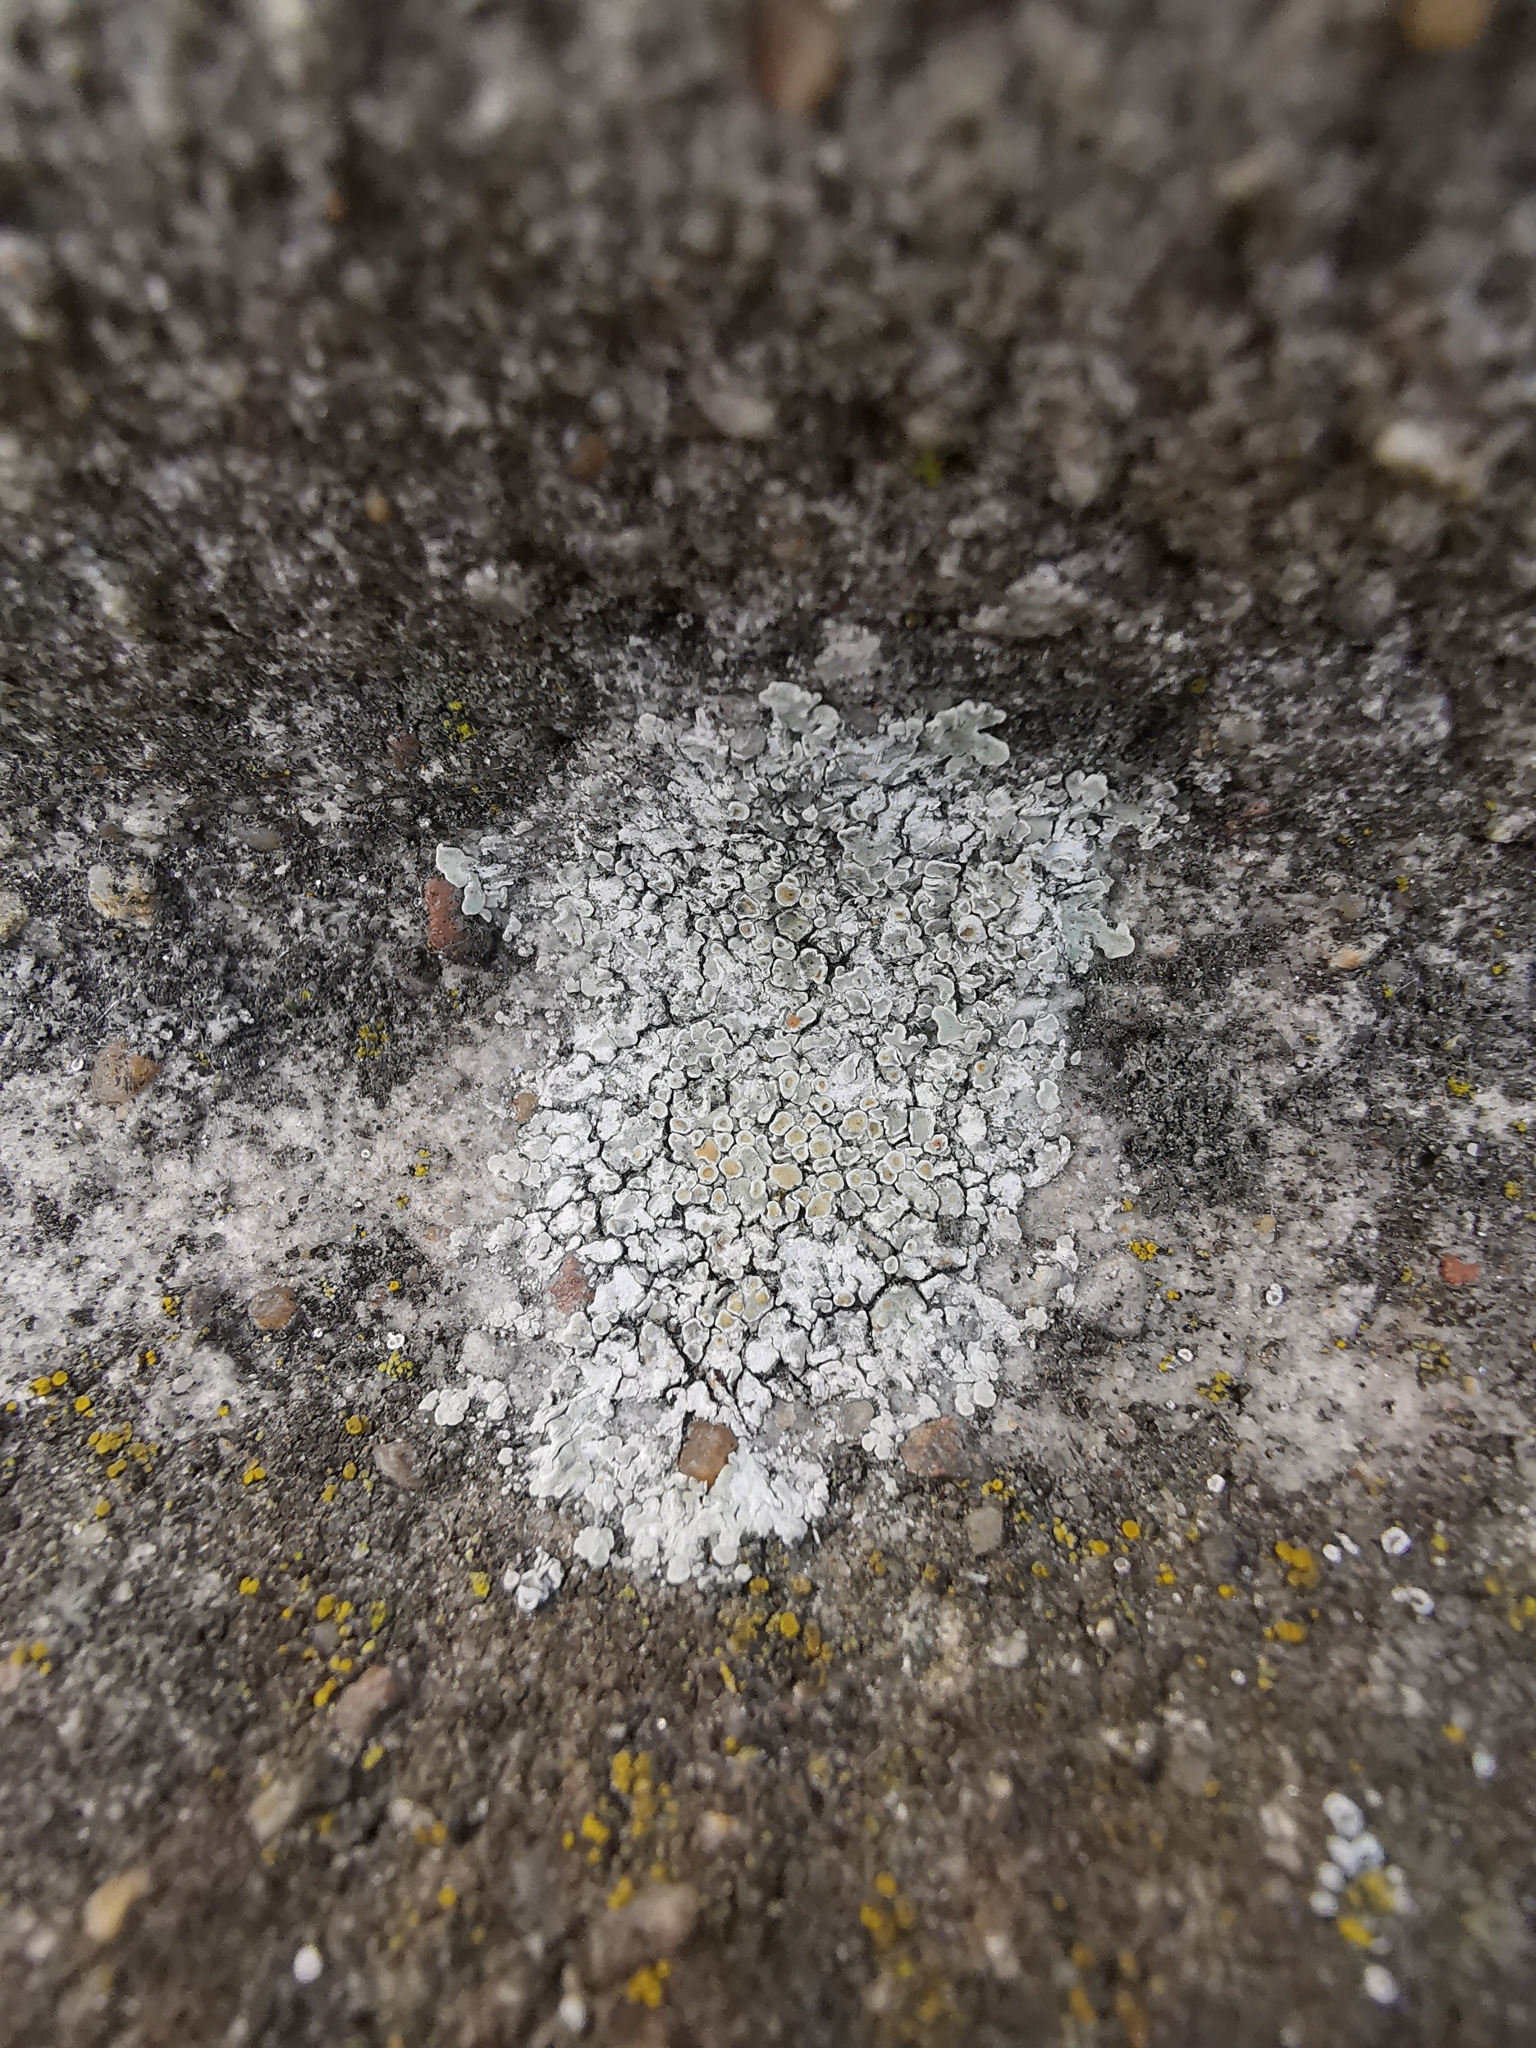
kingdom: Fungi
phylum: Ascomycota
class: Lecanoromycetes
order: Lecanorales
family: Lecanoraceae
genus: Protoparmeliopsis
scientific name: Protoparmeliopsis muralis
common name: Stonewall rim lichen
